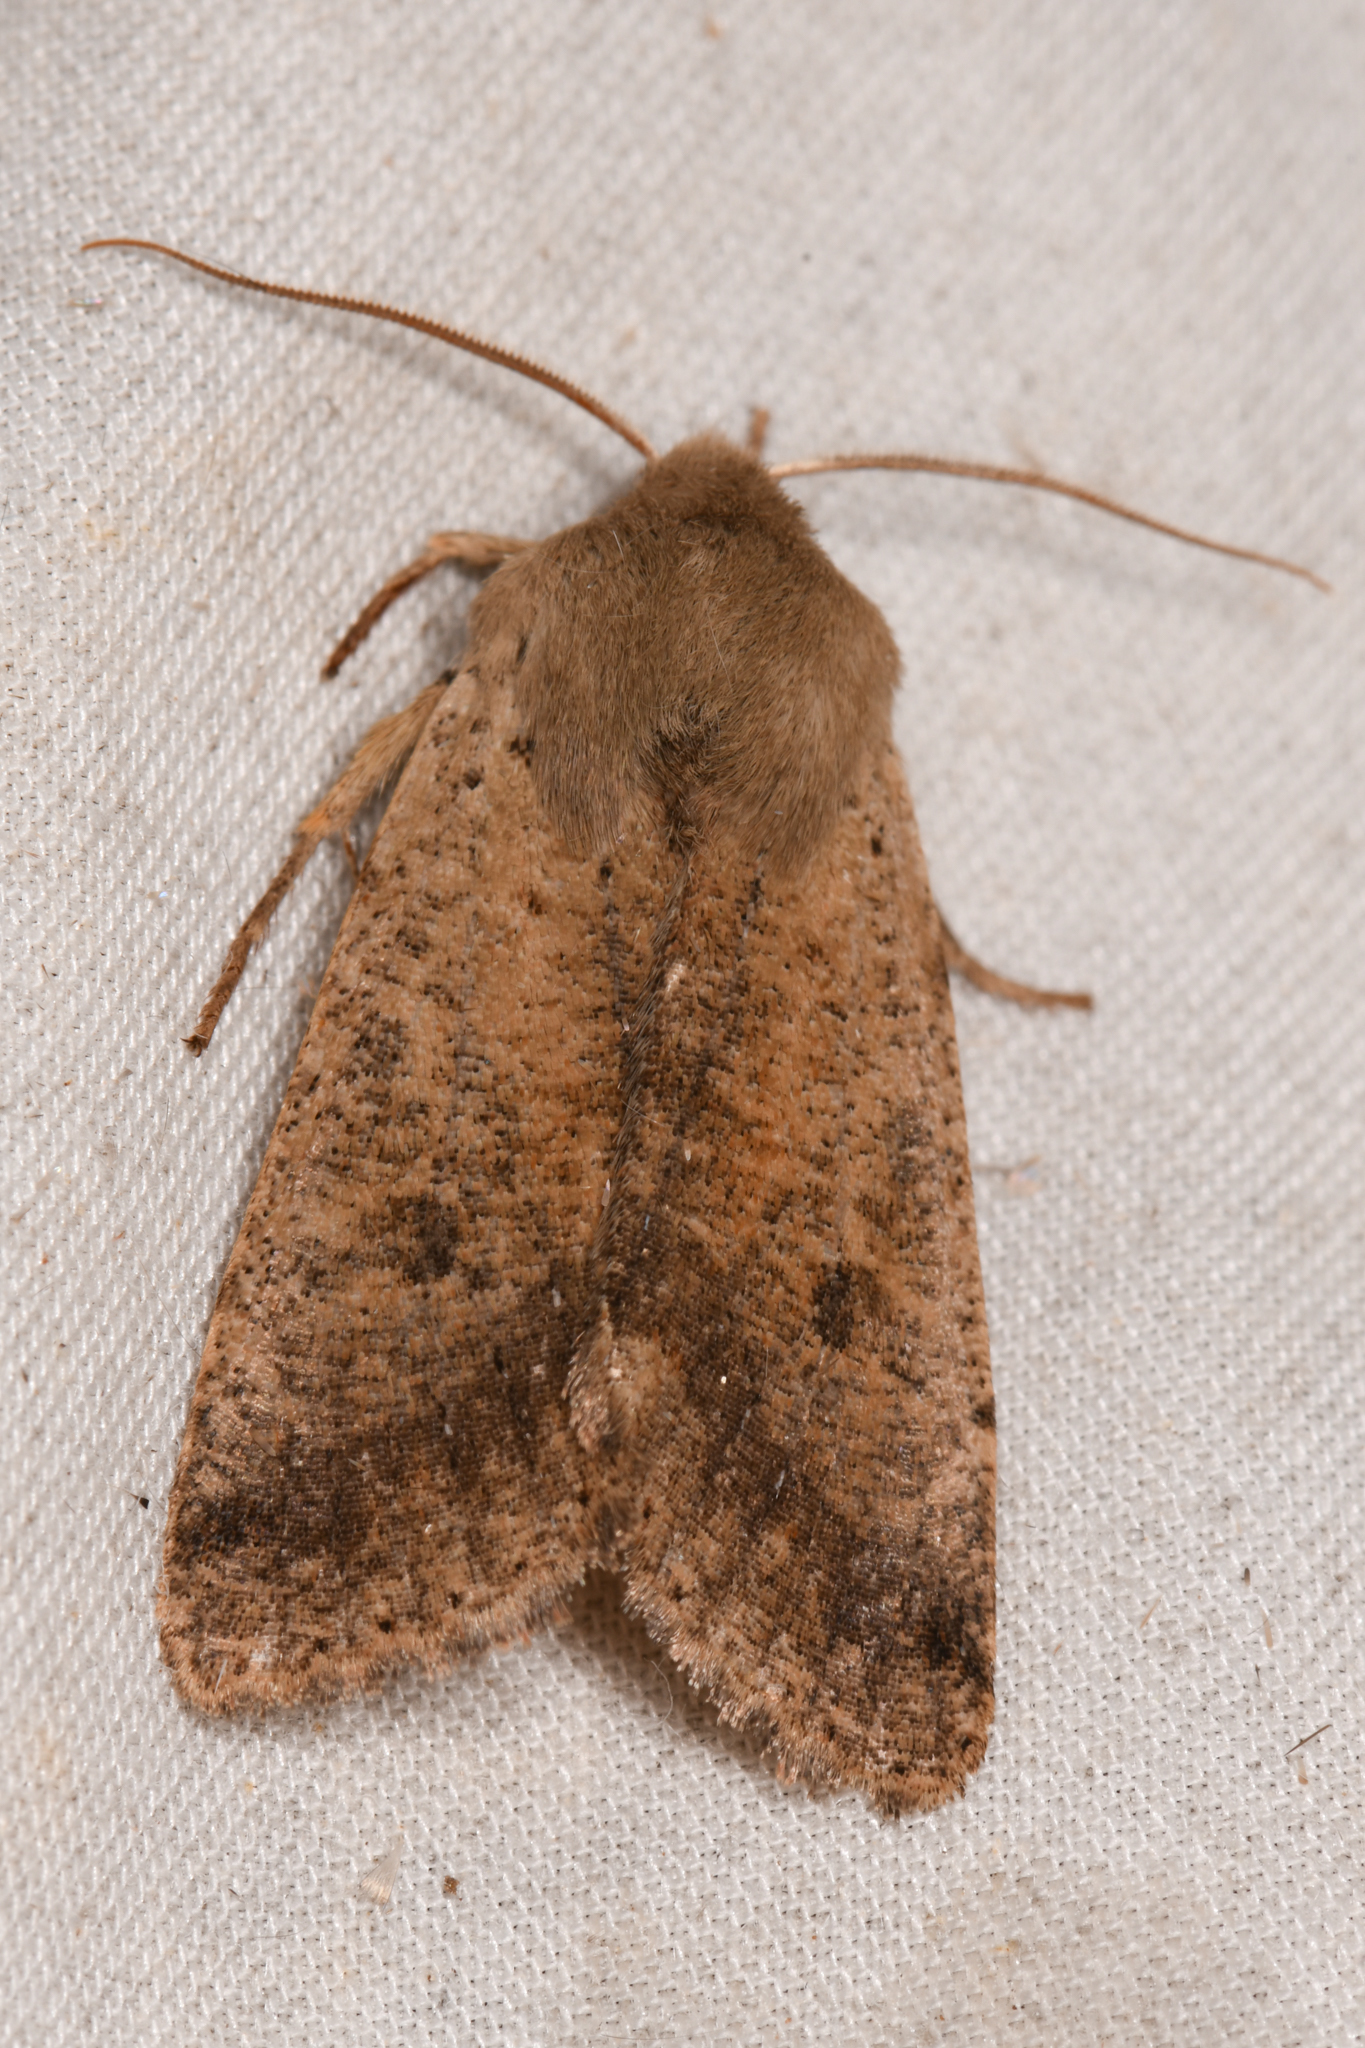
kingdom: Animalia
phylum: Arthropoda
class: Insecta
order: Lepidoptera
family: Noctuidae
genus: Orthosia
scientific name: Orthosia pacifica
